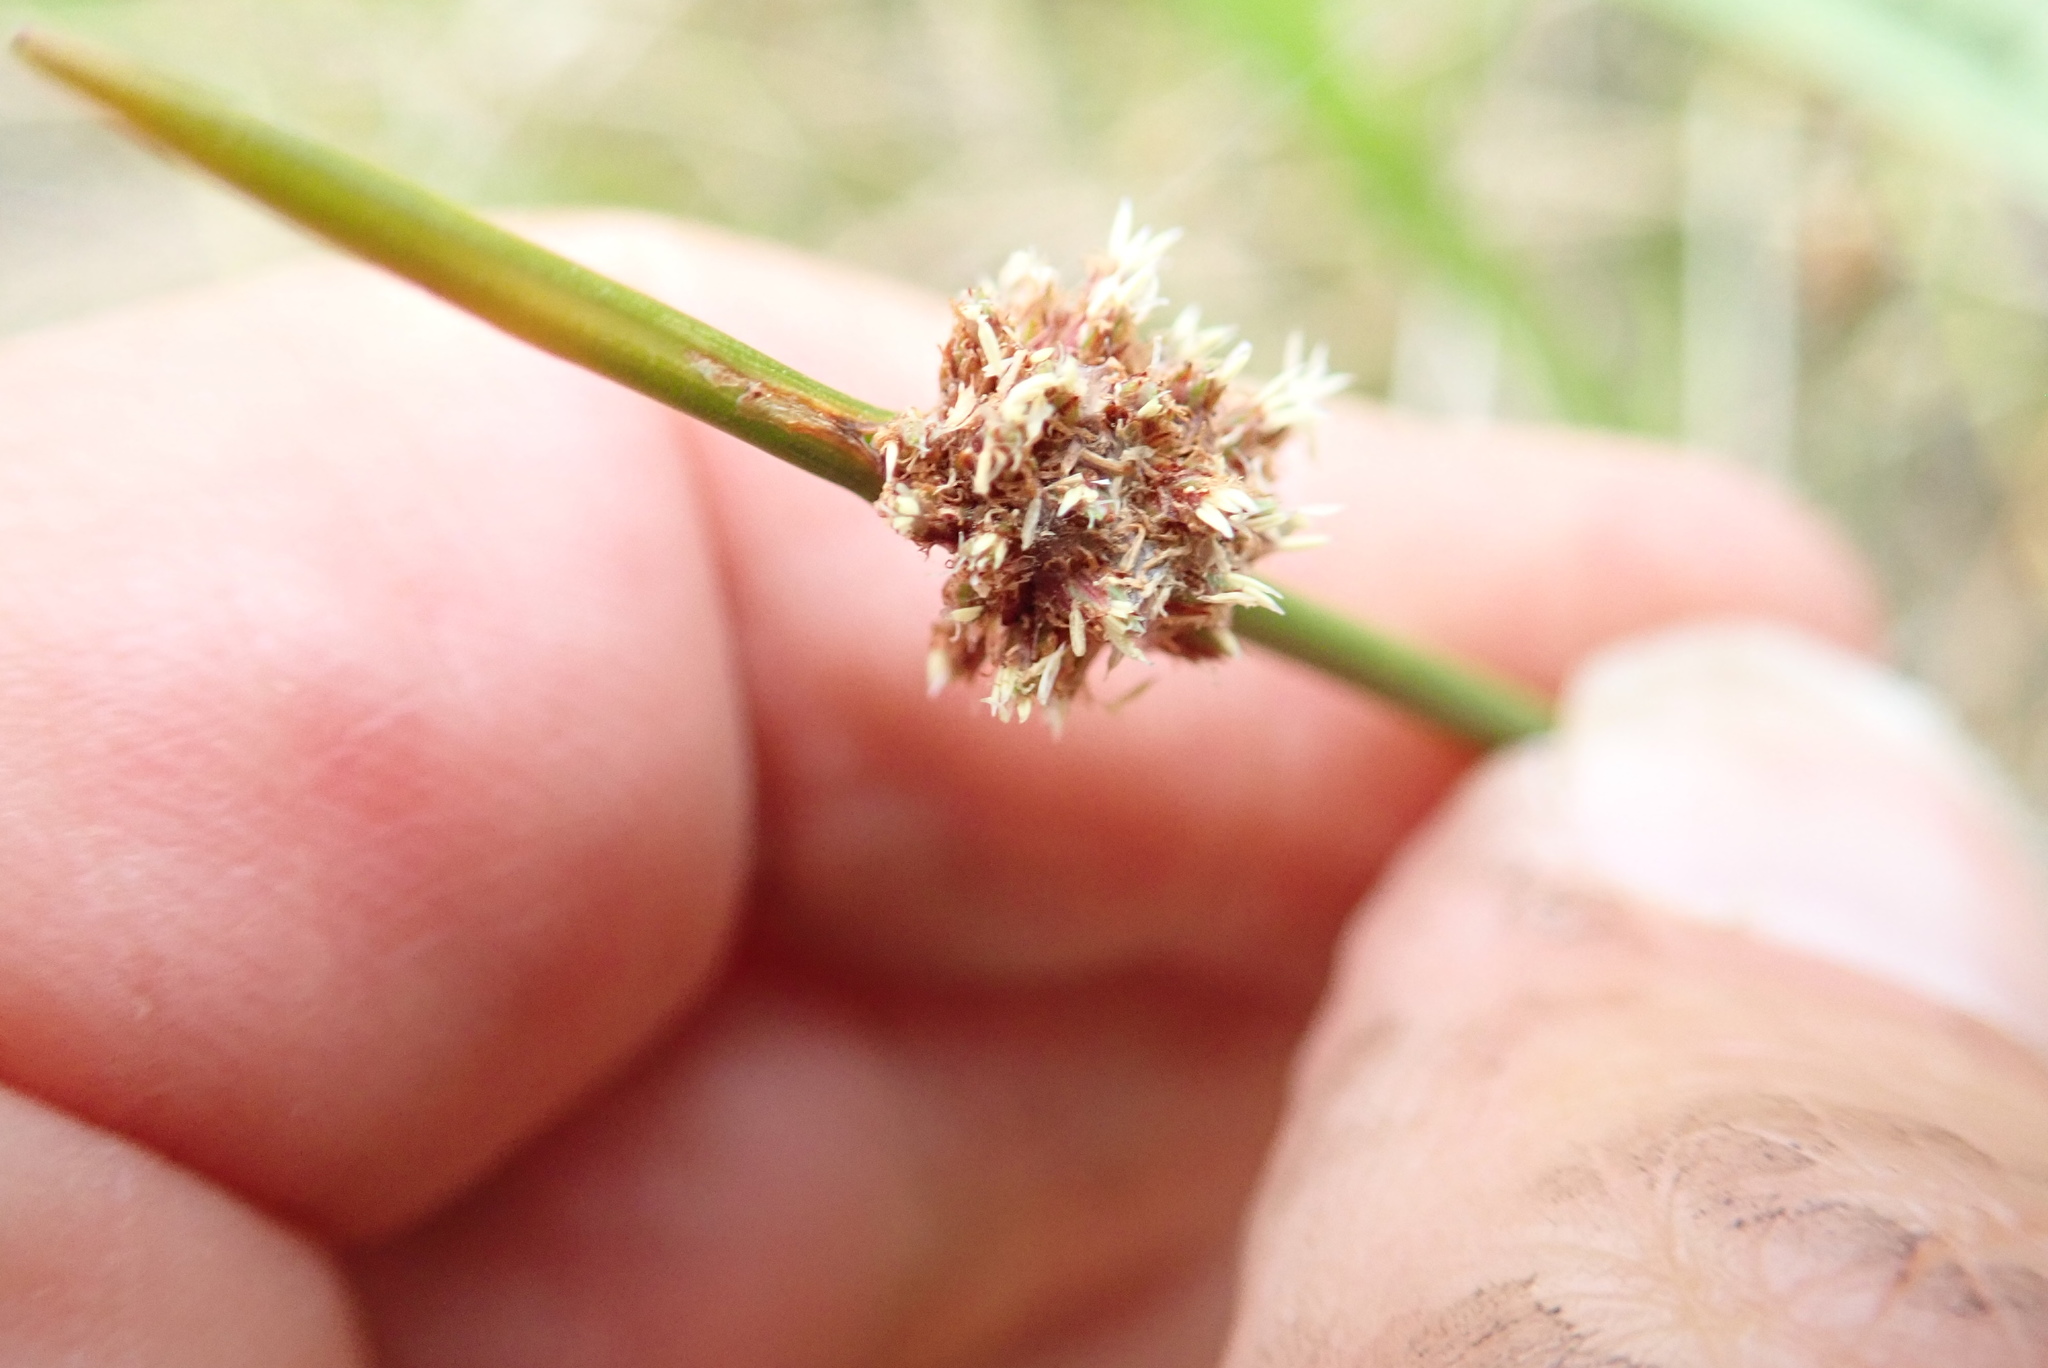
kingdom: Plantae
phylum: Tracheophyta
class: Liliopsida
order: Poales
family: Cyperaceae
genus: Ficinia
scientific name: Ficinia nodosa
